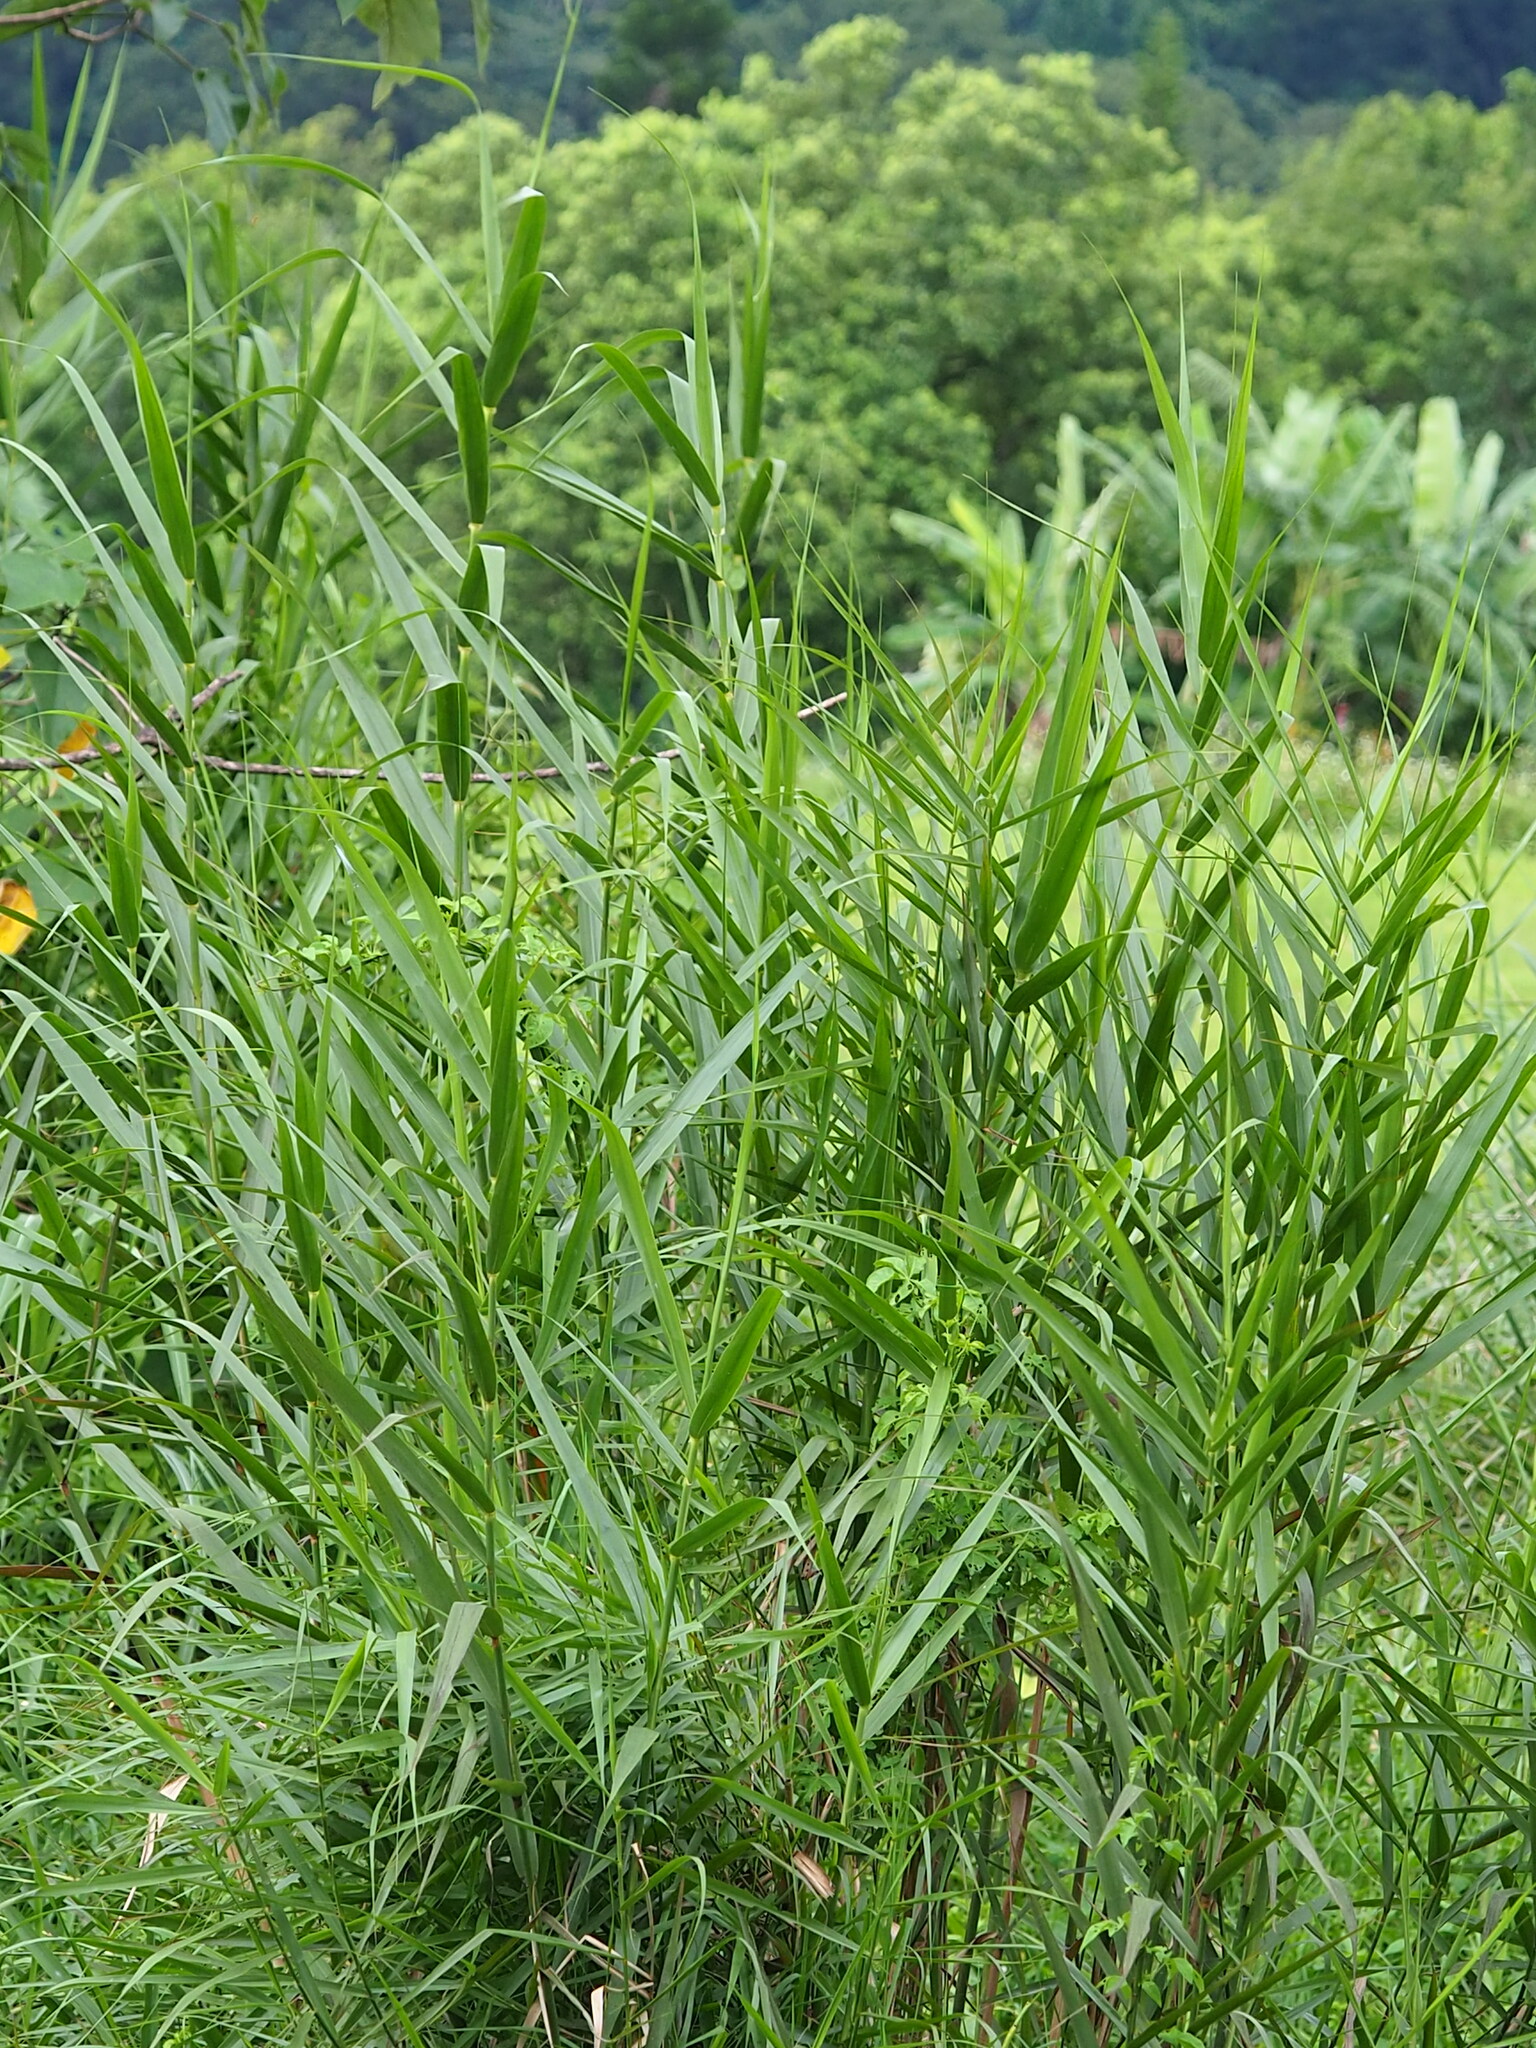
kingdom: Plantae
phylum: Tracheophyta
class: Liliopsida
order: Poales
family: Poaceae
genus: Phragmites
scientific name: Phragmites australis
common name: Common reed
